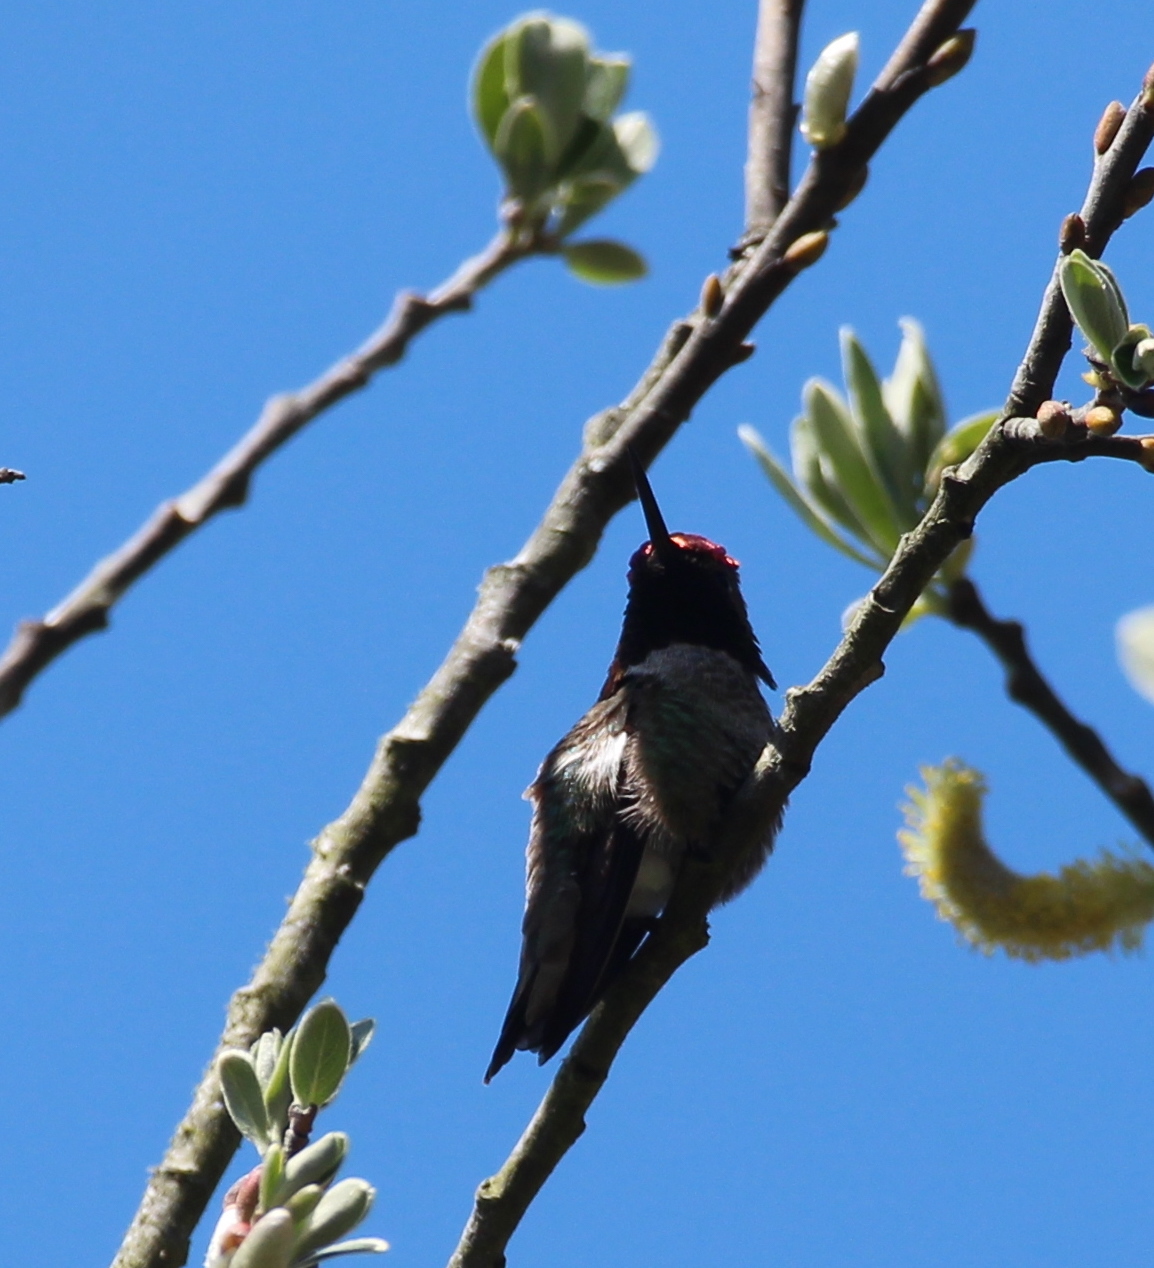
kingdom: Animalia
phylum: Chordata
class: Aves
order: Apodiformes
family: Trochilidae
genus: Calypte
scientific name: Calypte anna
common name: Anna's hummingbird
